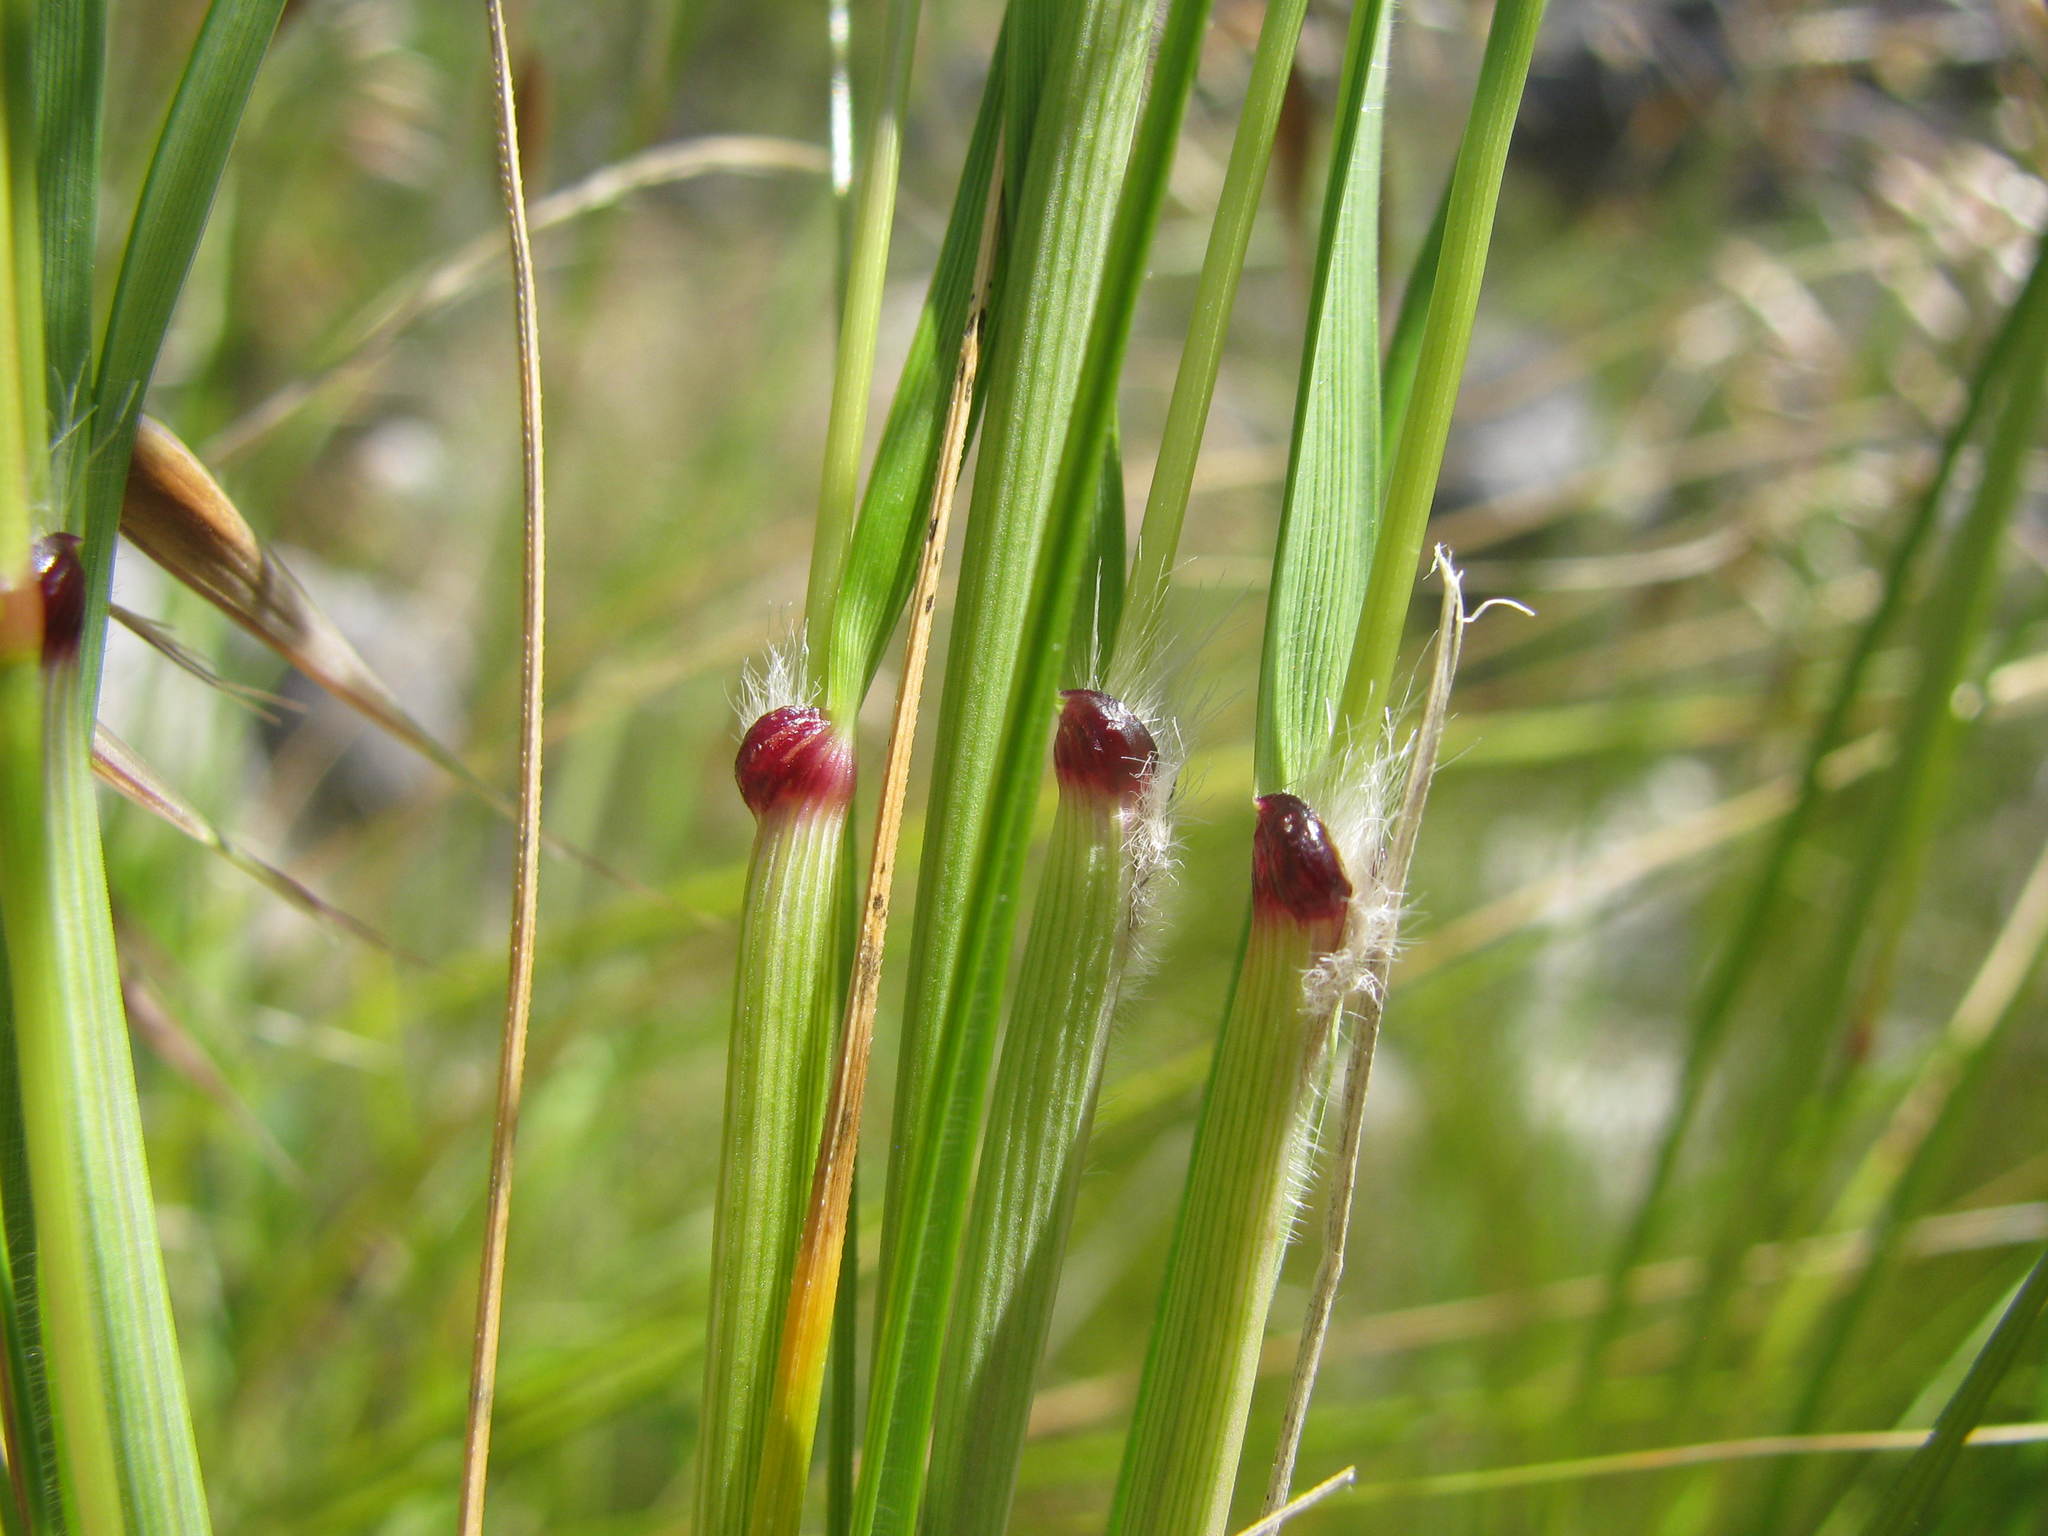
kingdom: Plantae
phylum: Tracheophyta
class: Liliopsida
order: Poales
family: Poaceae
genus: Pentameris
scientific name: Pentameris thuarii
